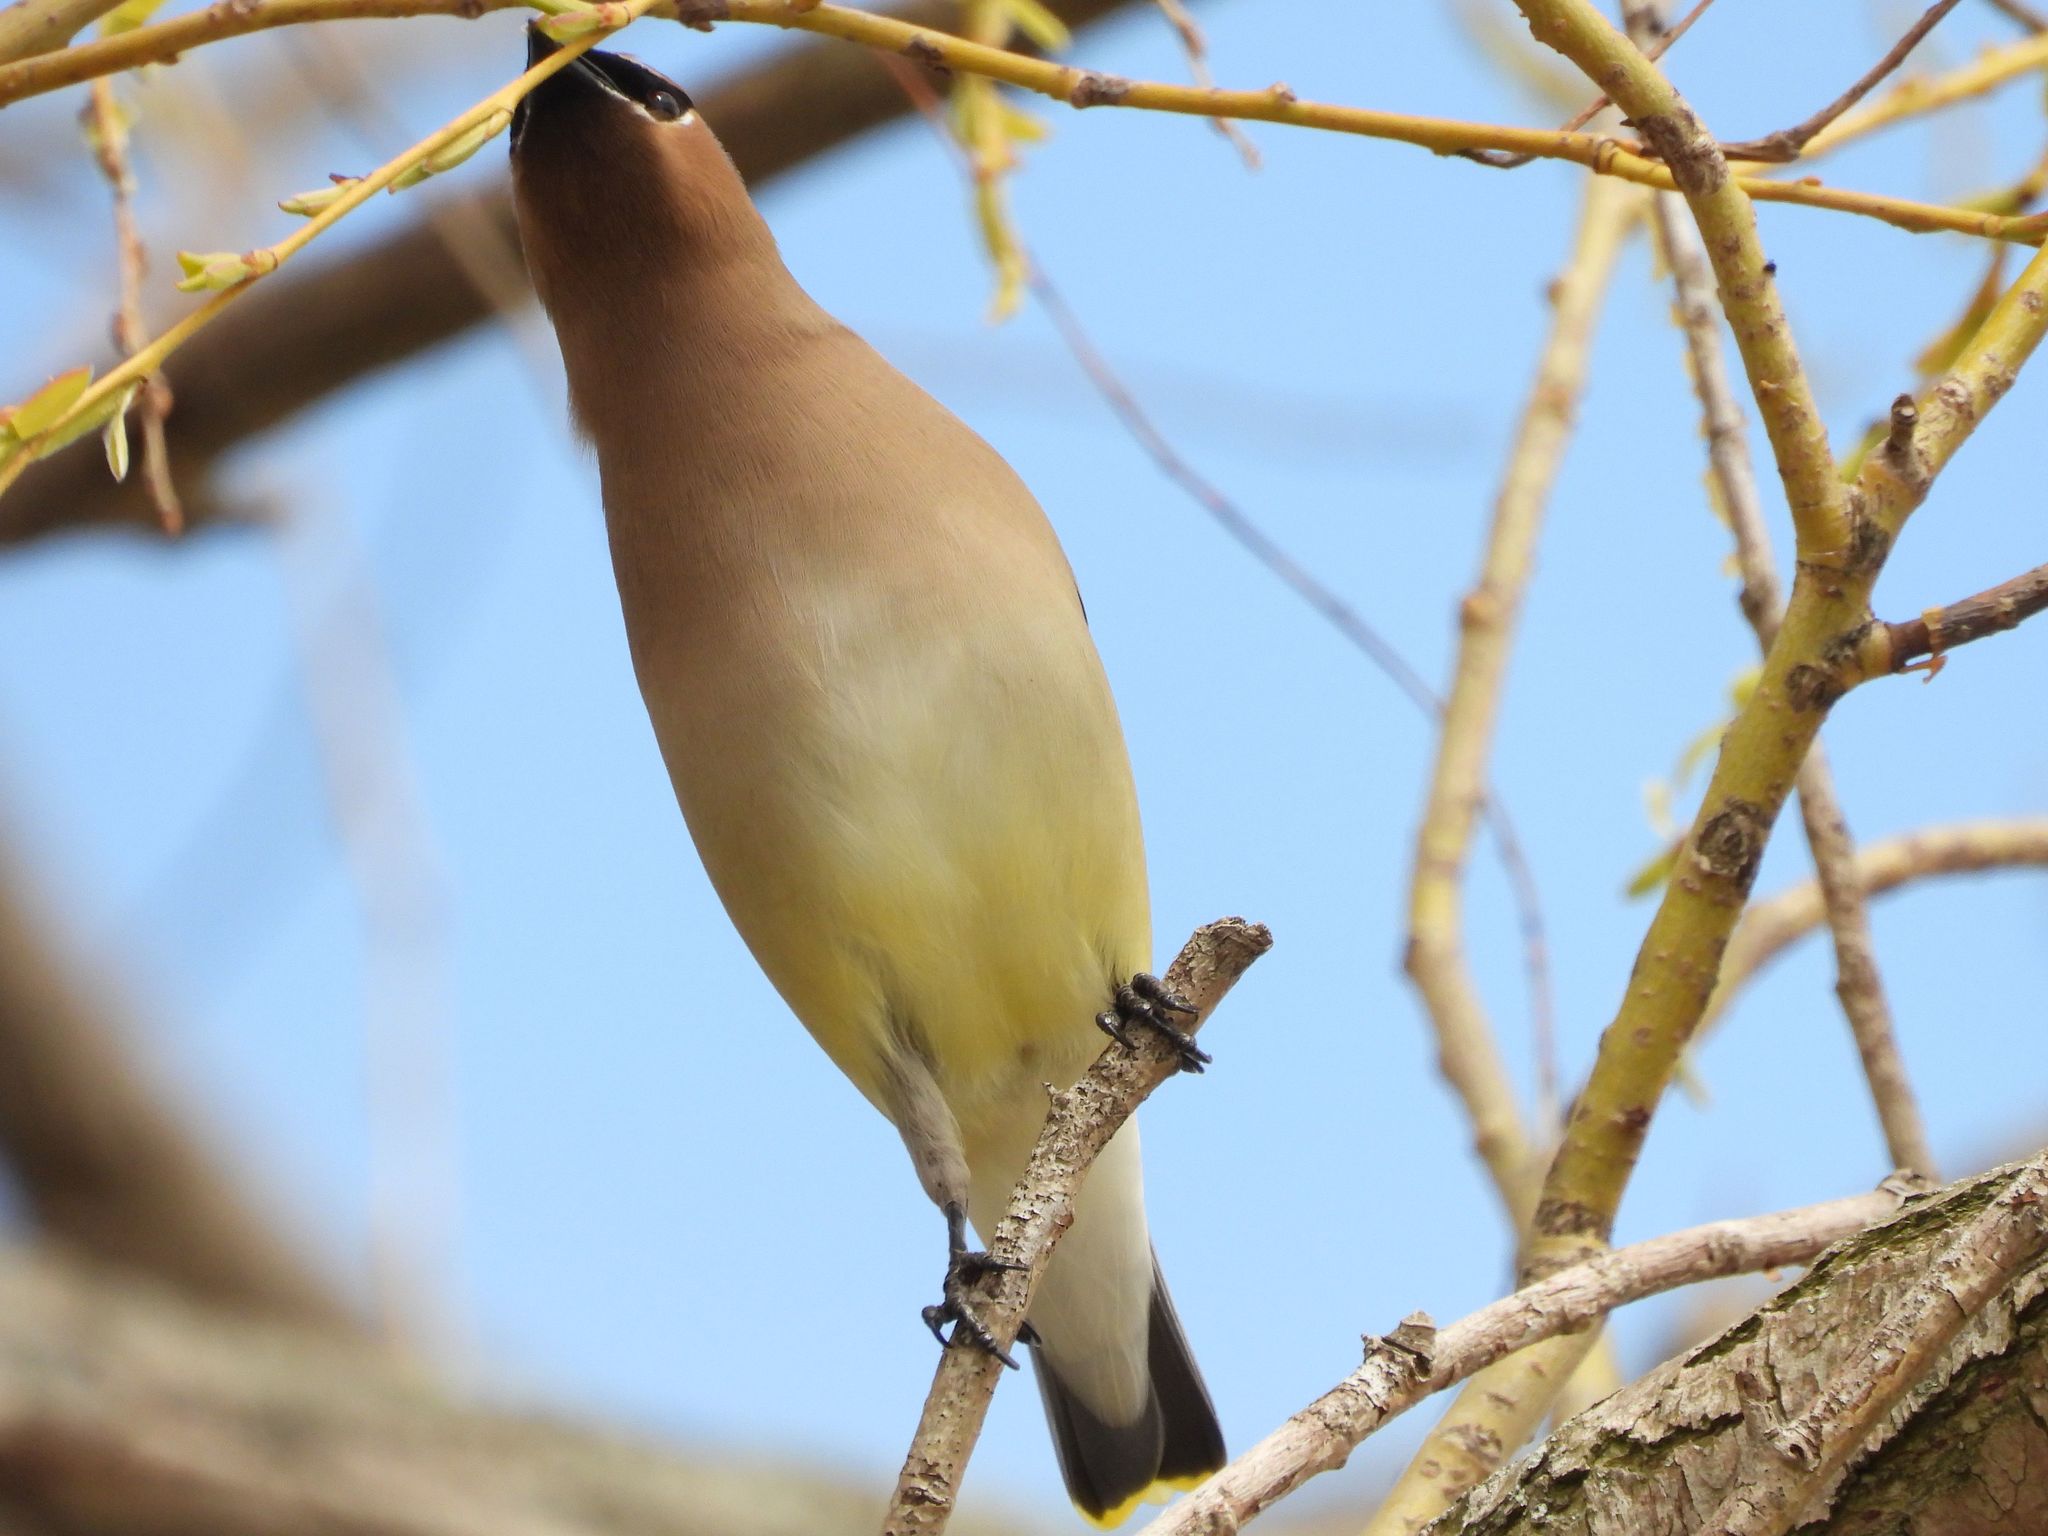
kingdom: Animalia
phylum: Chordata
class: Aves
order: Passeriformes
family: Bombycillidae
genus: Bombycilla
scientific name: Bombycilla cedrorum
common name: Cedar waxwing
